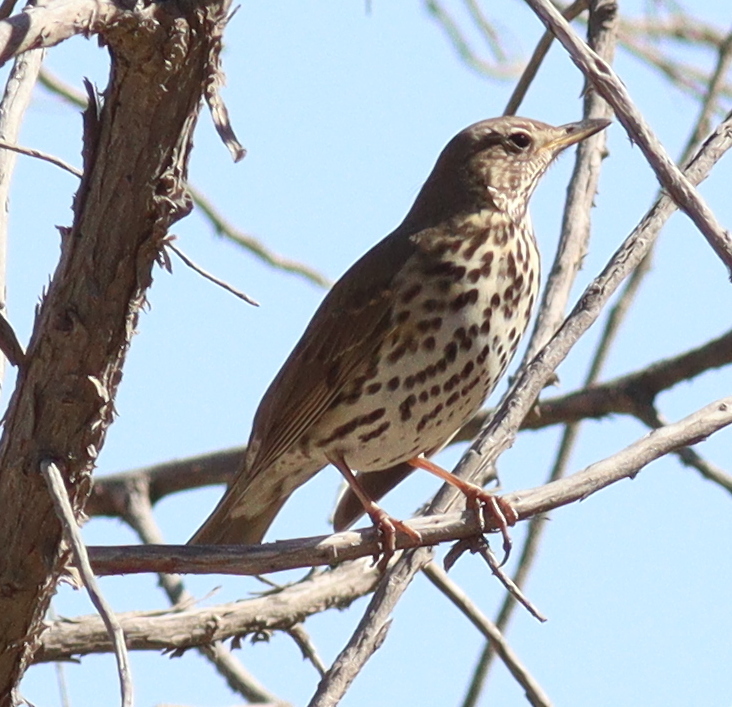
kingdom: Animalia
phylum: Chordata
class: Aves
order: Passeriformes
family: Turdidae
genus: Turdus
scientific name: Turdus philomelos
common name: Song thrush
